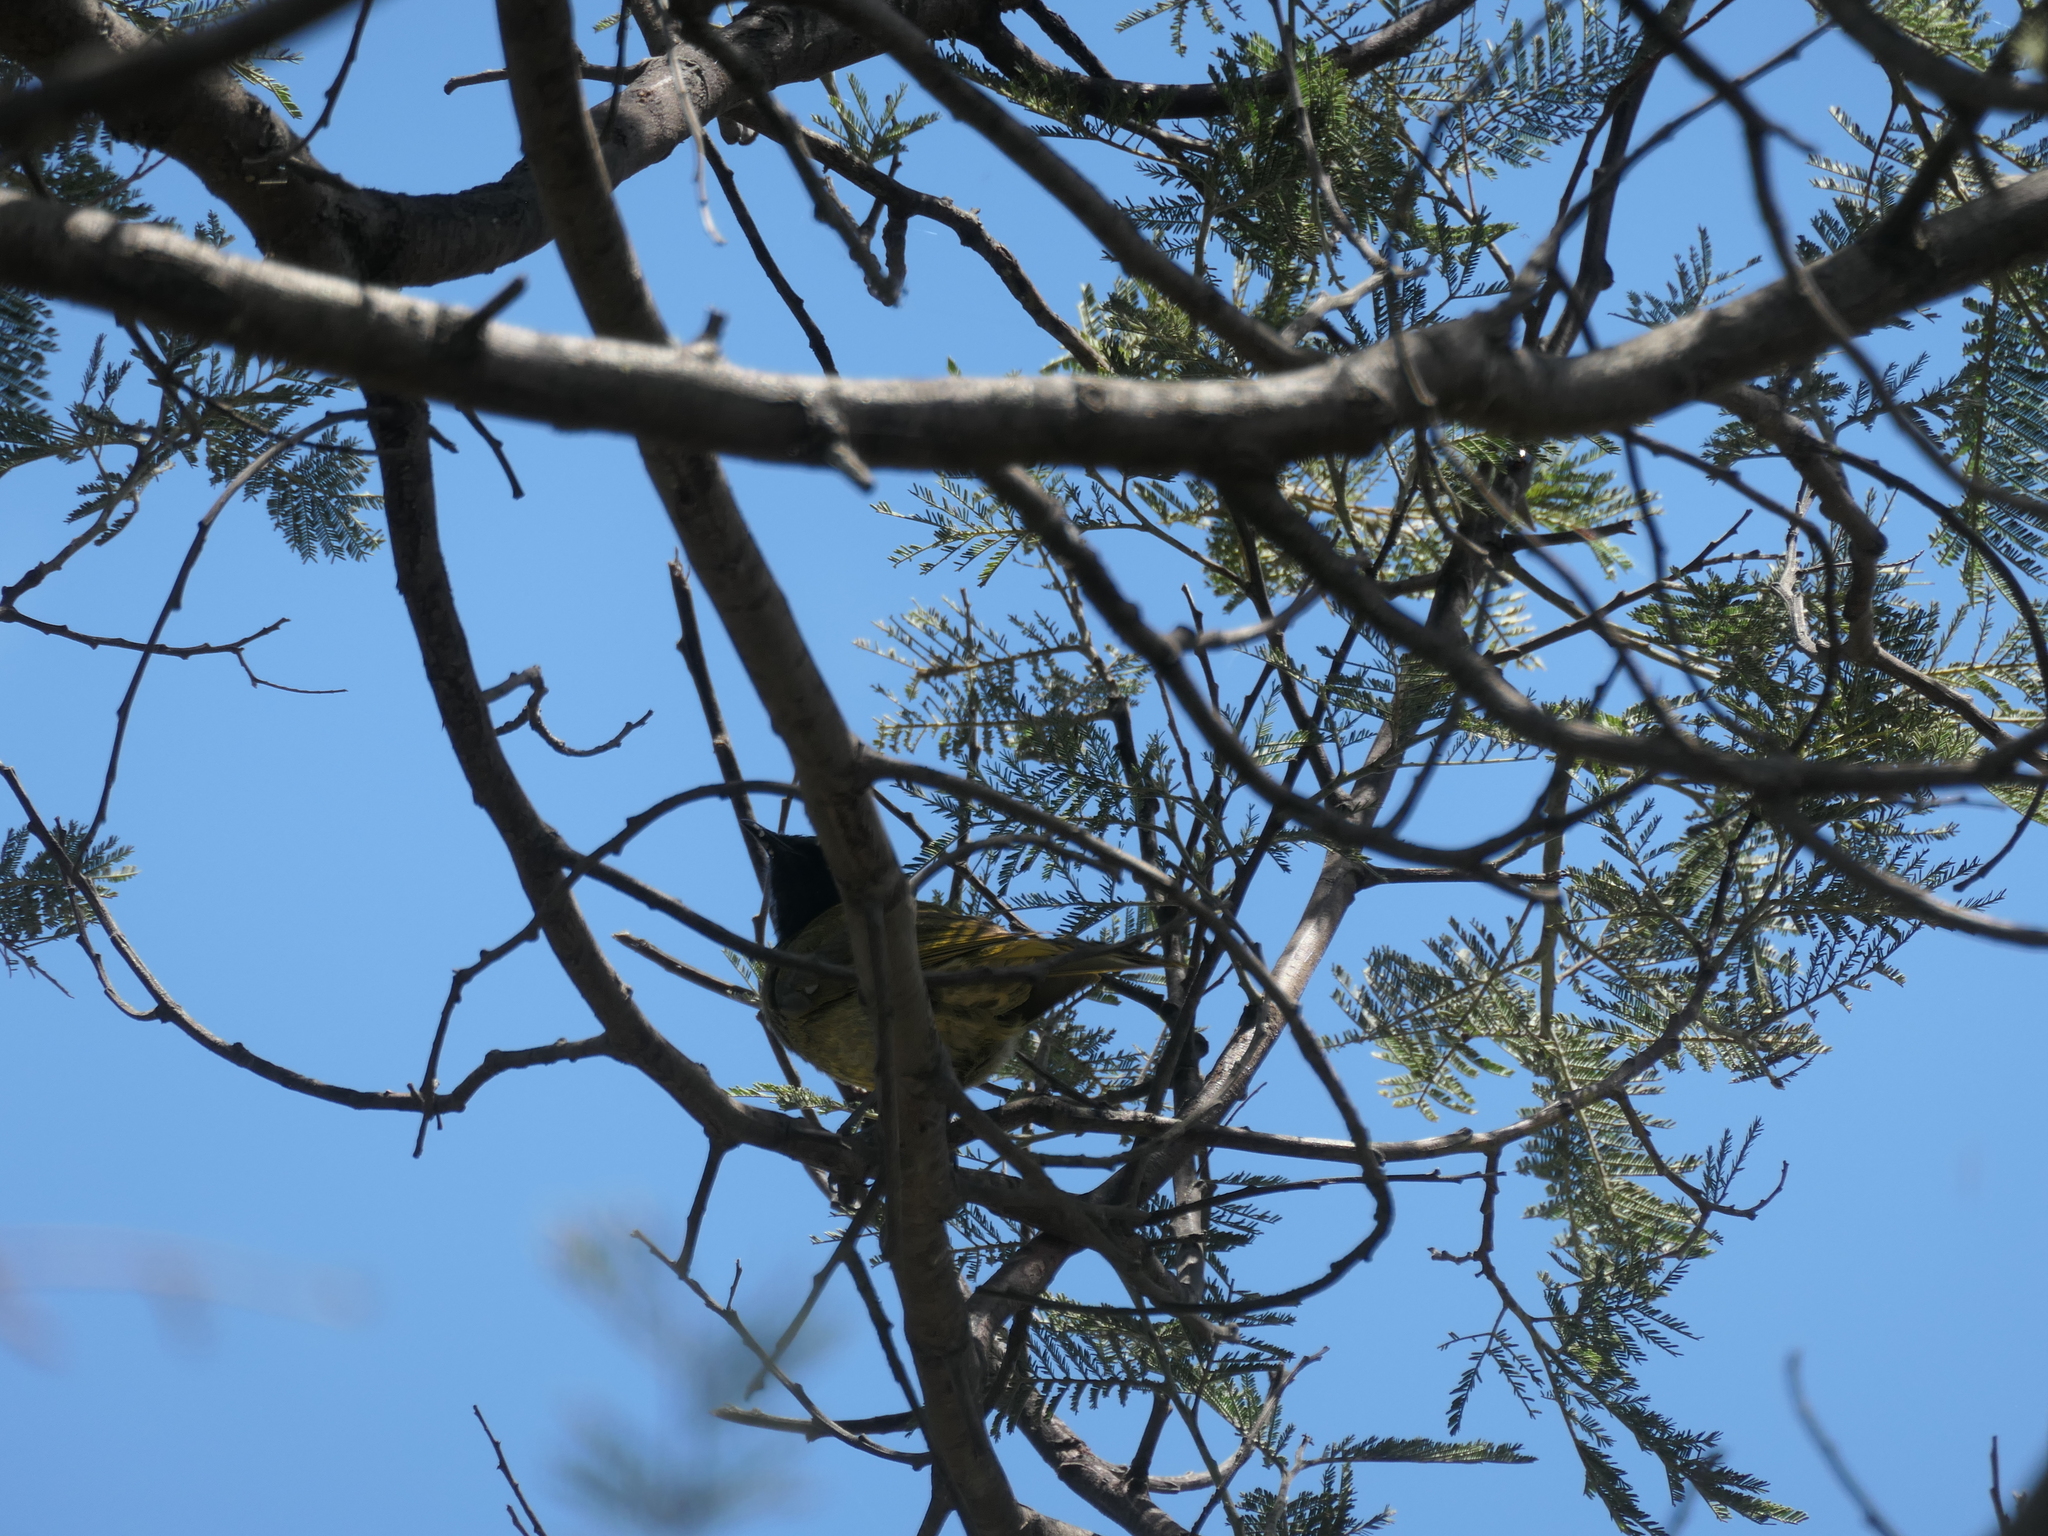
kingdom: Animalia
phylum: Chordata
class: Aves
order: Passeriformes
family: Meliphagidae
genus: Nesoptilotis
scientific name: Nesoptilotis leucotis
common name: White-eared honeyeater
